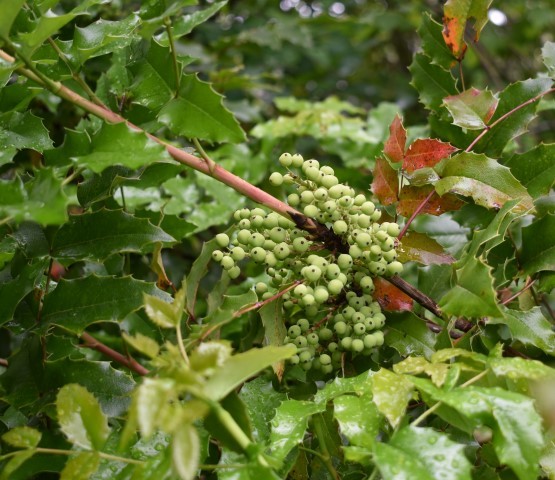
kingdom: Plantae
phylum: Tracheophyta
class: Magnoliopsida
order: Ranunculales
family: Berberidaceae
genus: Mahonia
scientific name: Mahonia aquifolium
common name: Oregon-grape
